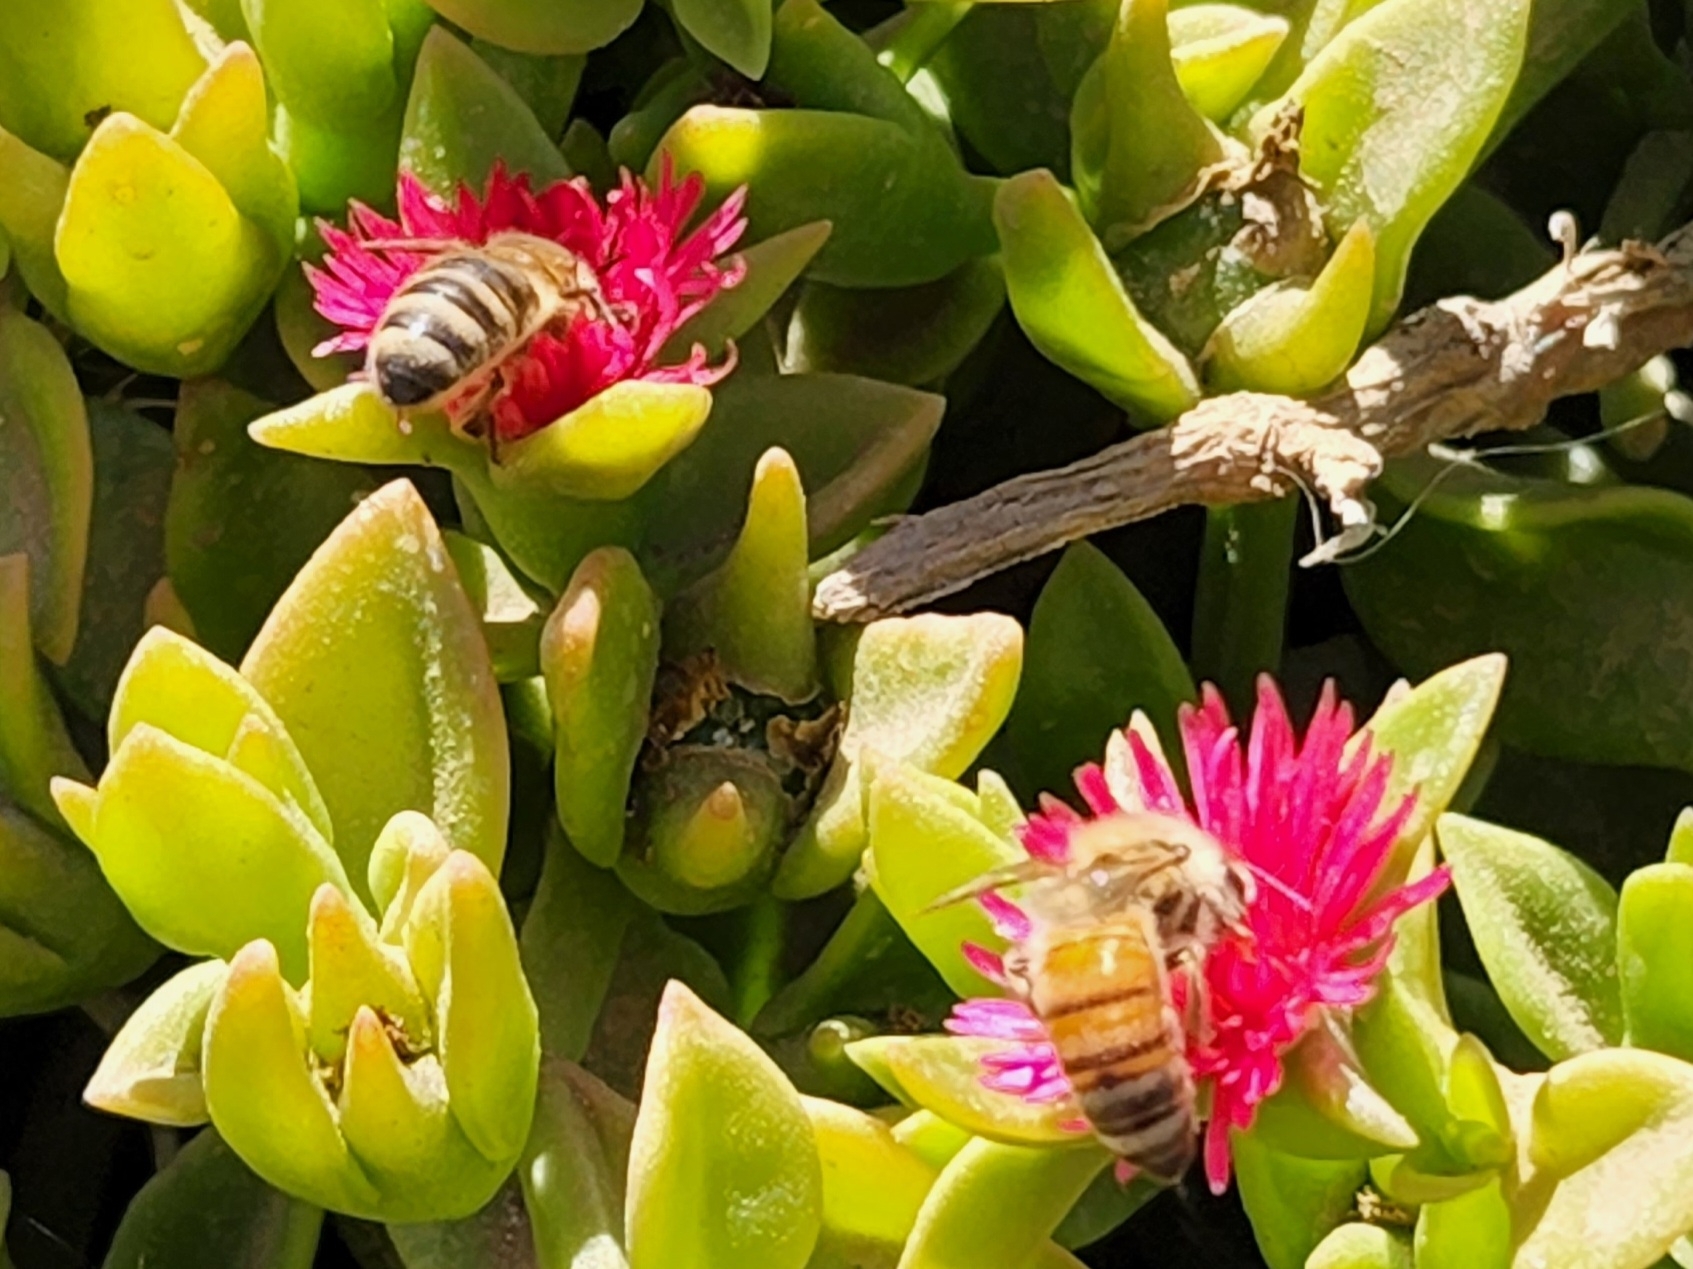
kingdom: Animalia
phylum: Arthropoda
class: Insecta
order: Hymenoptera
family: Apidae
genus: Apis
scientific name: Apis mellifera
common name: Honey bee
